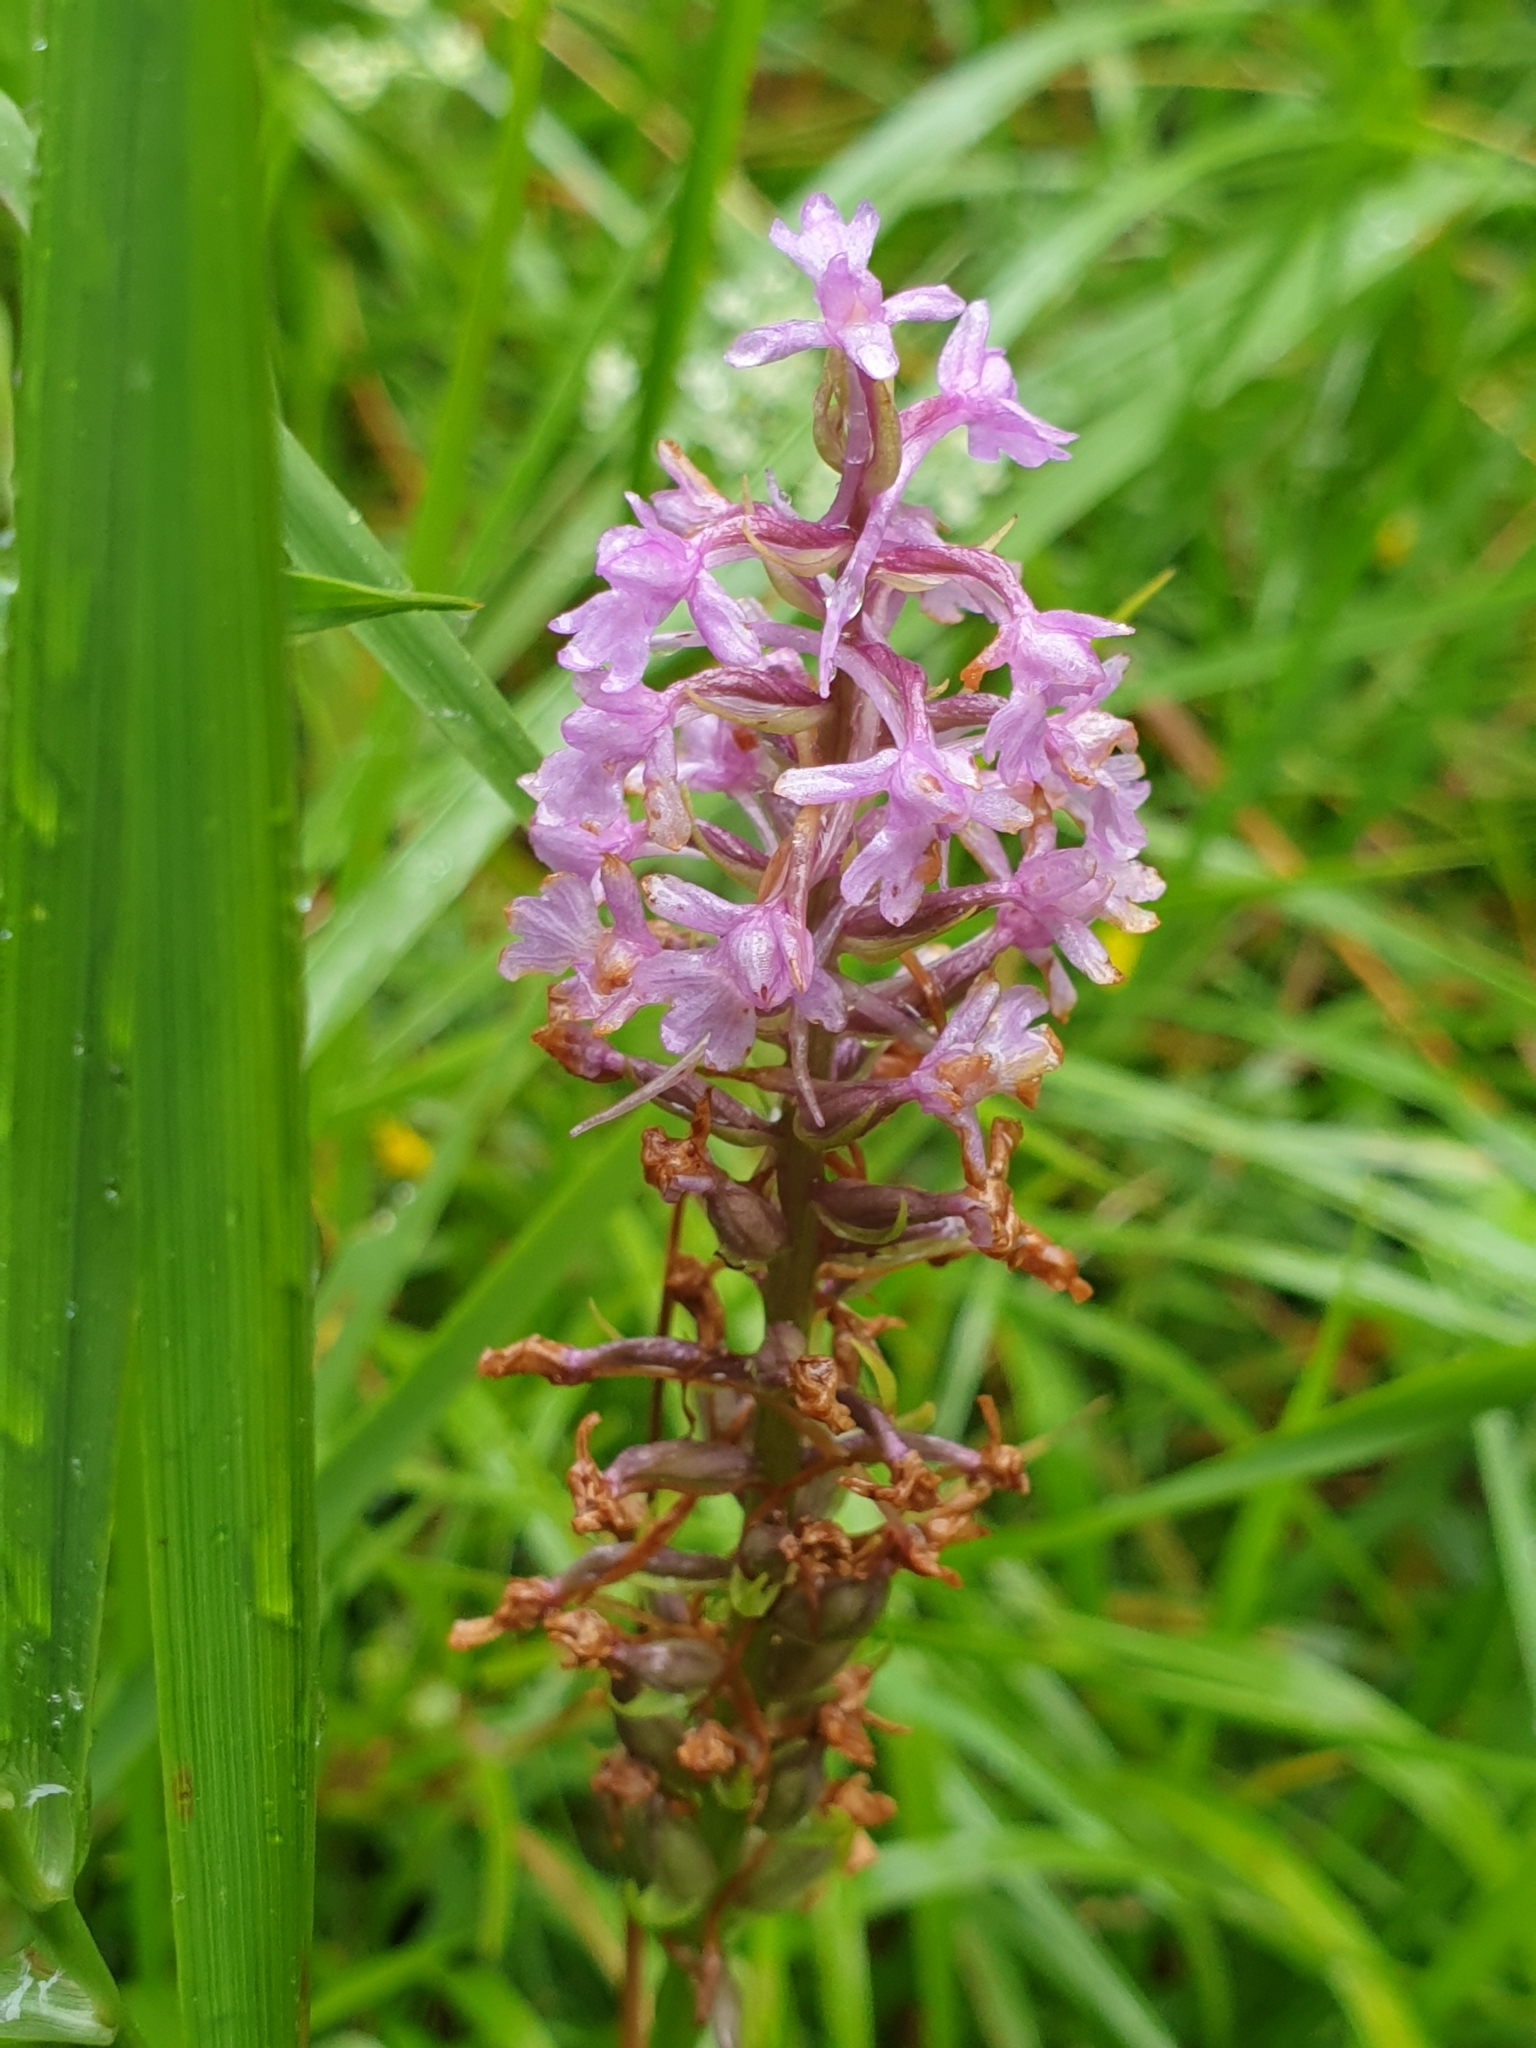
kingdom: Plantae
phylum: Tracheophyta
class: Liliopsida
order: Asparagales
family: Orchidaceae
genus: Gymnadenia
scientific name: Gymnadenia conopsea
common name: Fragrant orchid
